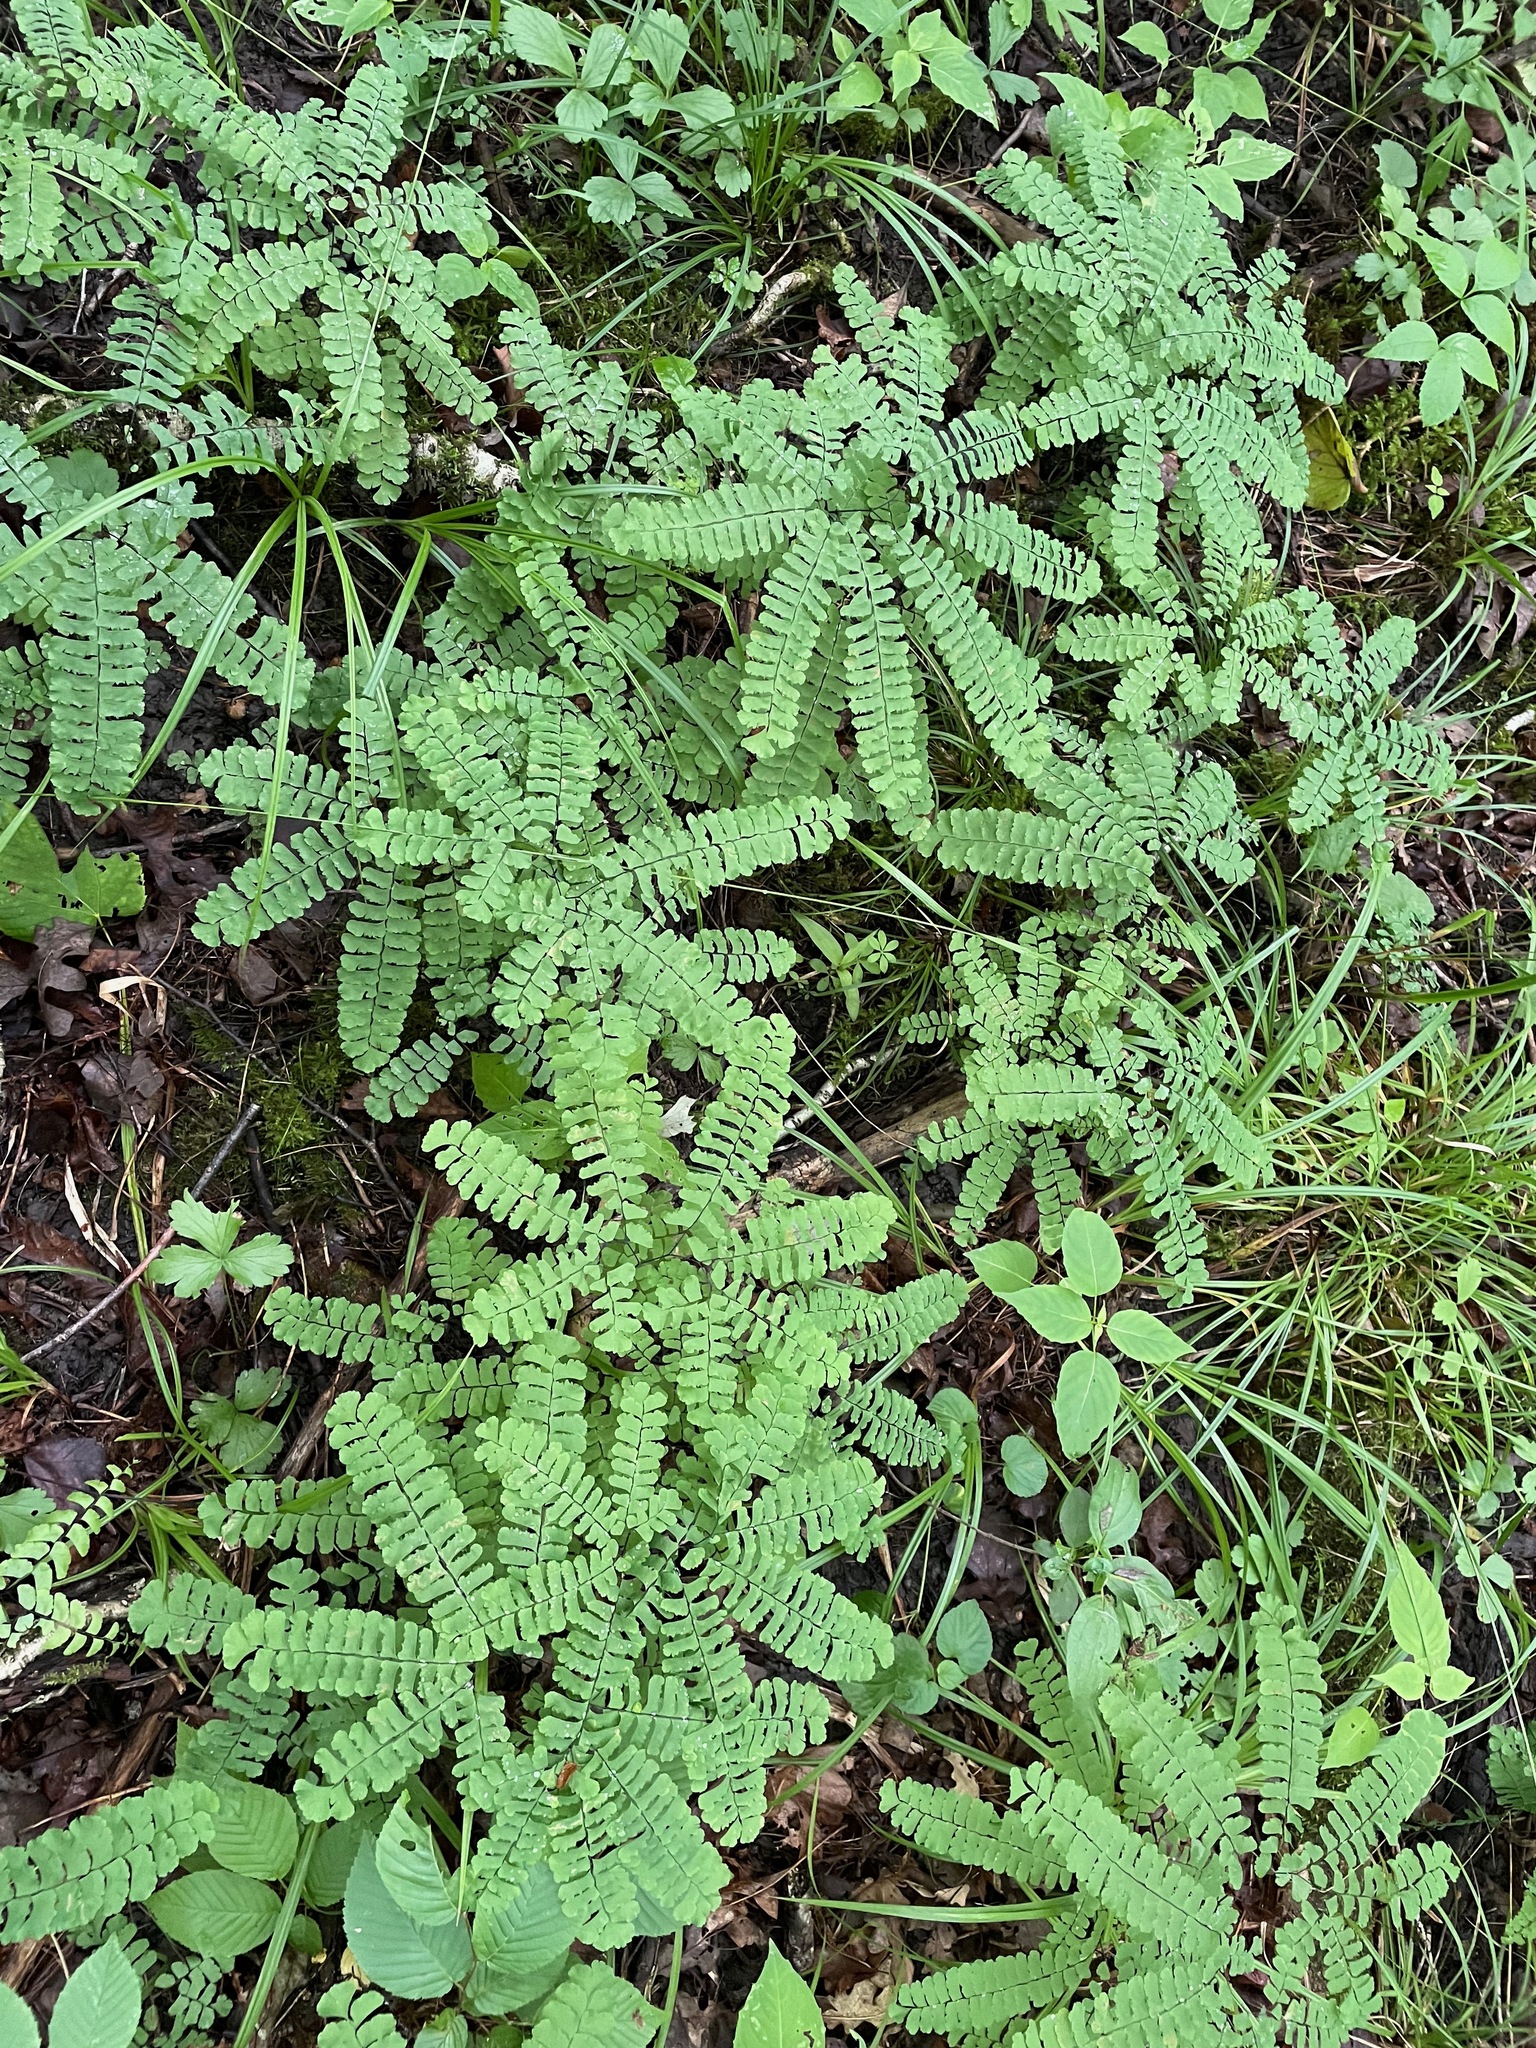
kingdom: Plantae
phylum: Tracheophyta
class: Polypodiopsida
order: Polypodiales
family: Pteridaceae
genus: Adiantum
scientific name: Adiantum pedatum
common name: Five-finger fern
